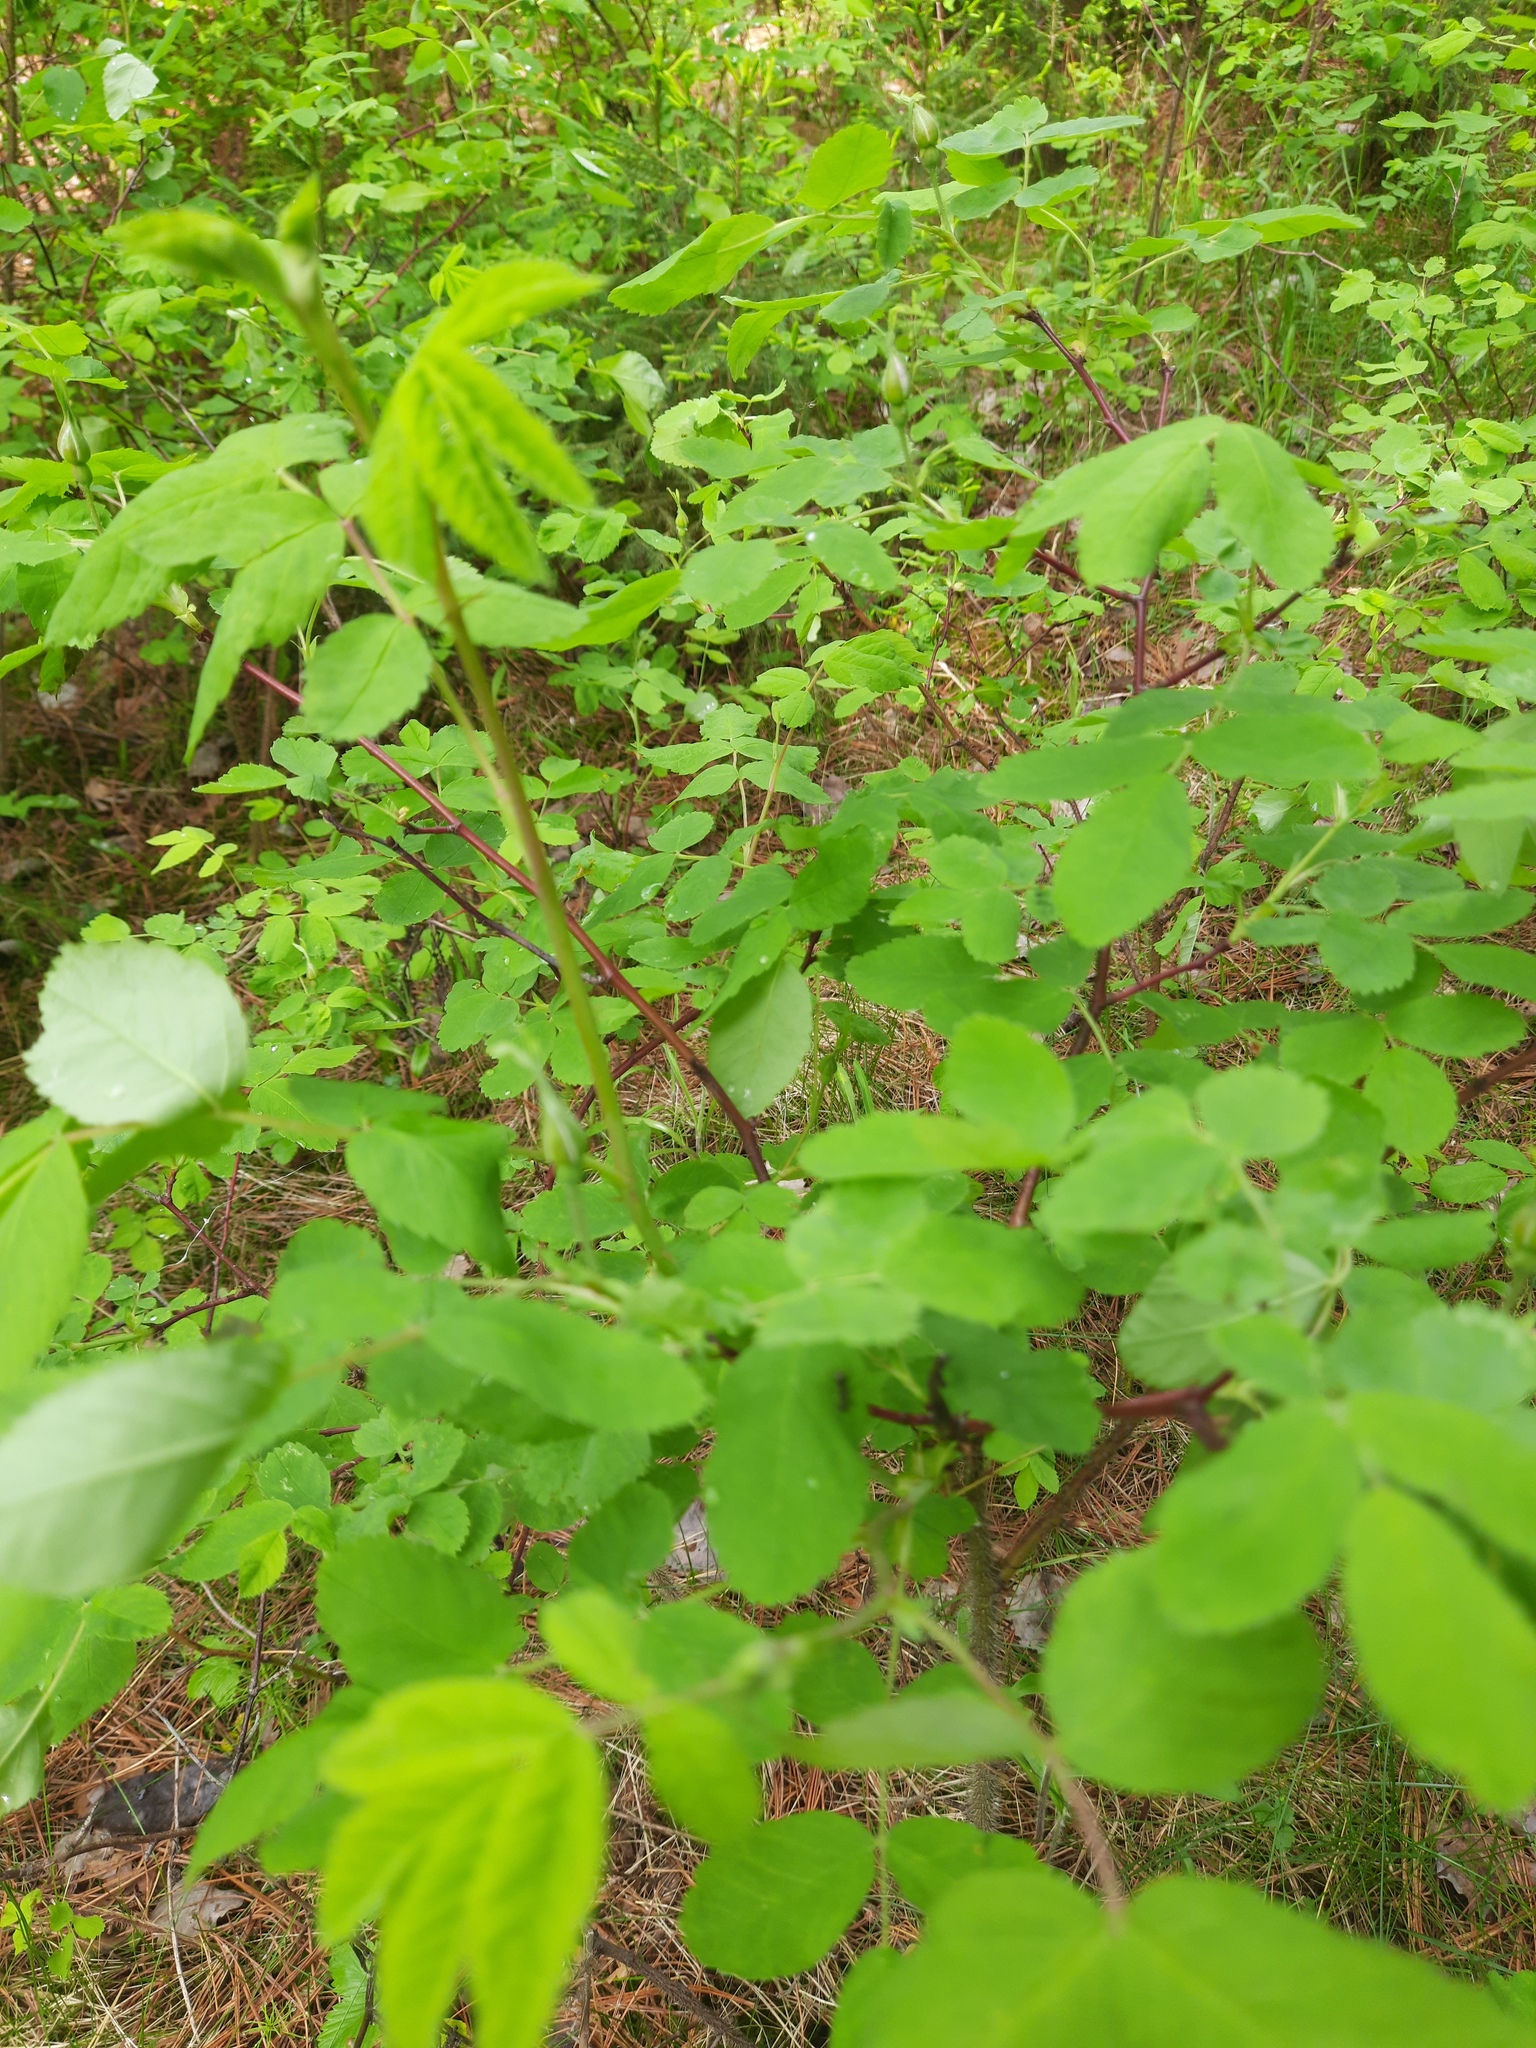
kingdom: Plantae
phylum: Tracheophyta
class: Magnoliopsida
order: Rosales
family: Rosaceae
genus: Rosa
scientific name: Rosa acicularis
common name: Prickly rose
